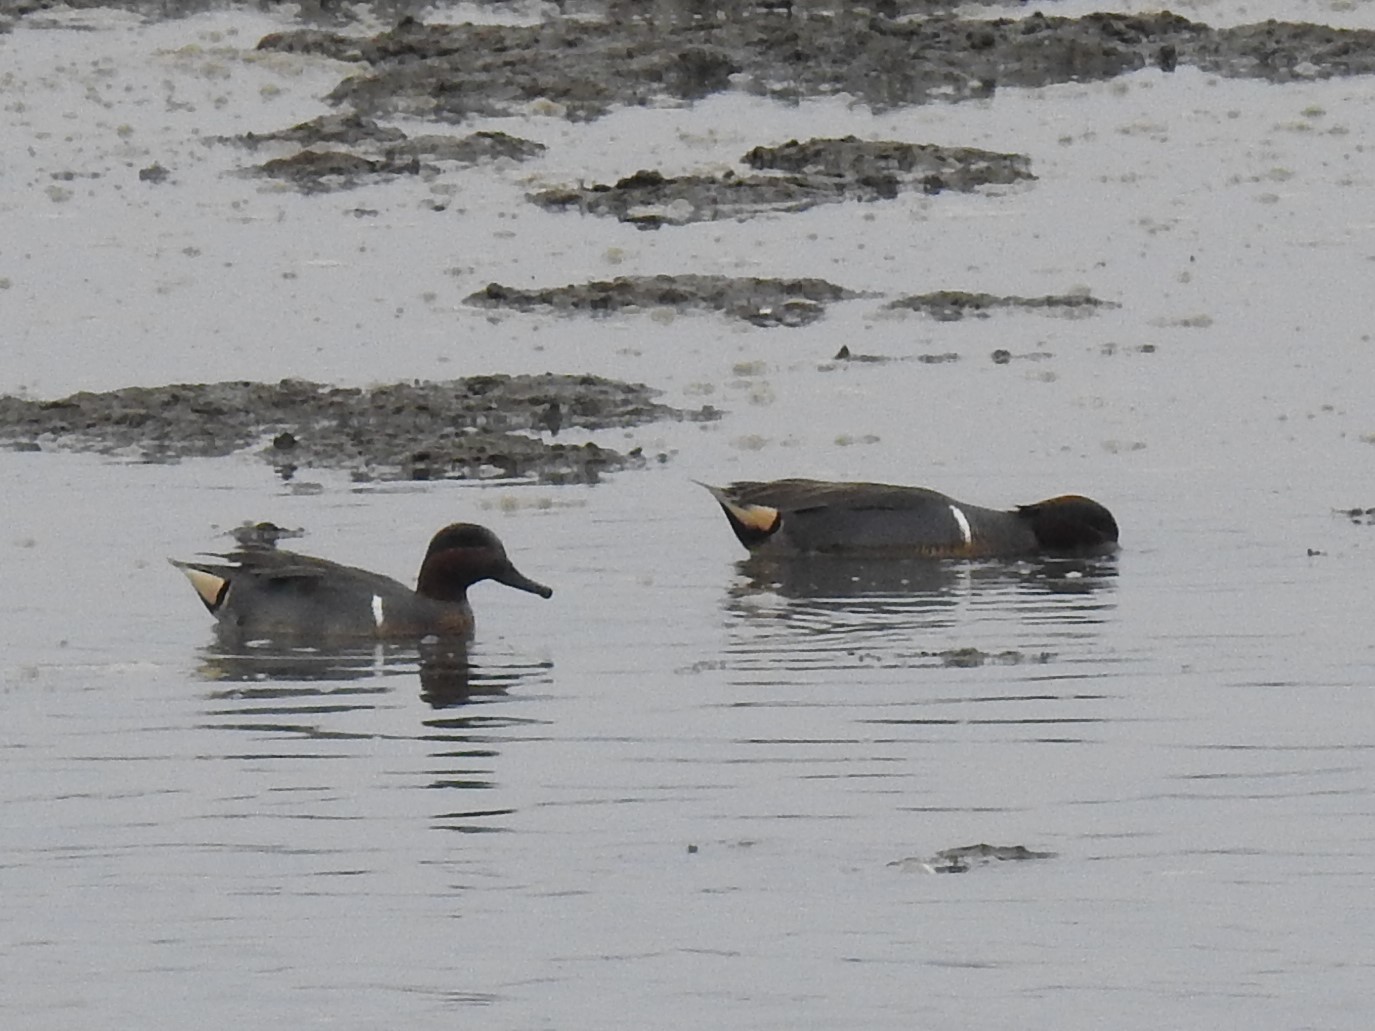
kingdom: Animalia
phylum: Chordata
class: Aves
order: Anseriformes
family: Anatidae
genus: Anas
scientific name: Anas crecca
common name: Eurasian teal
